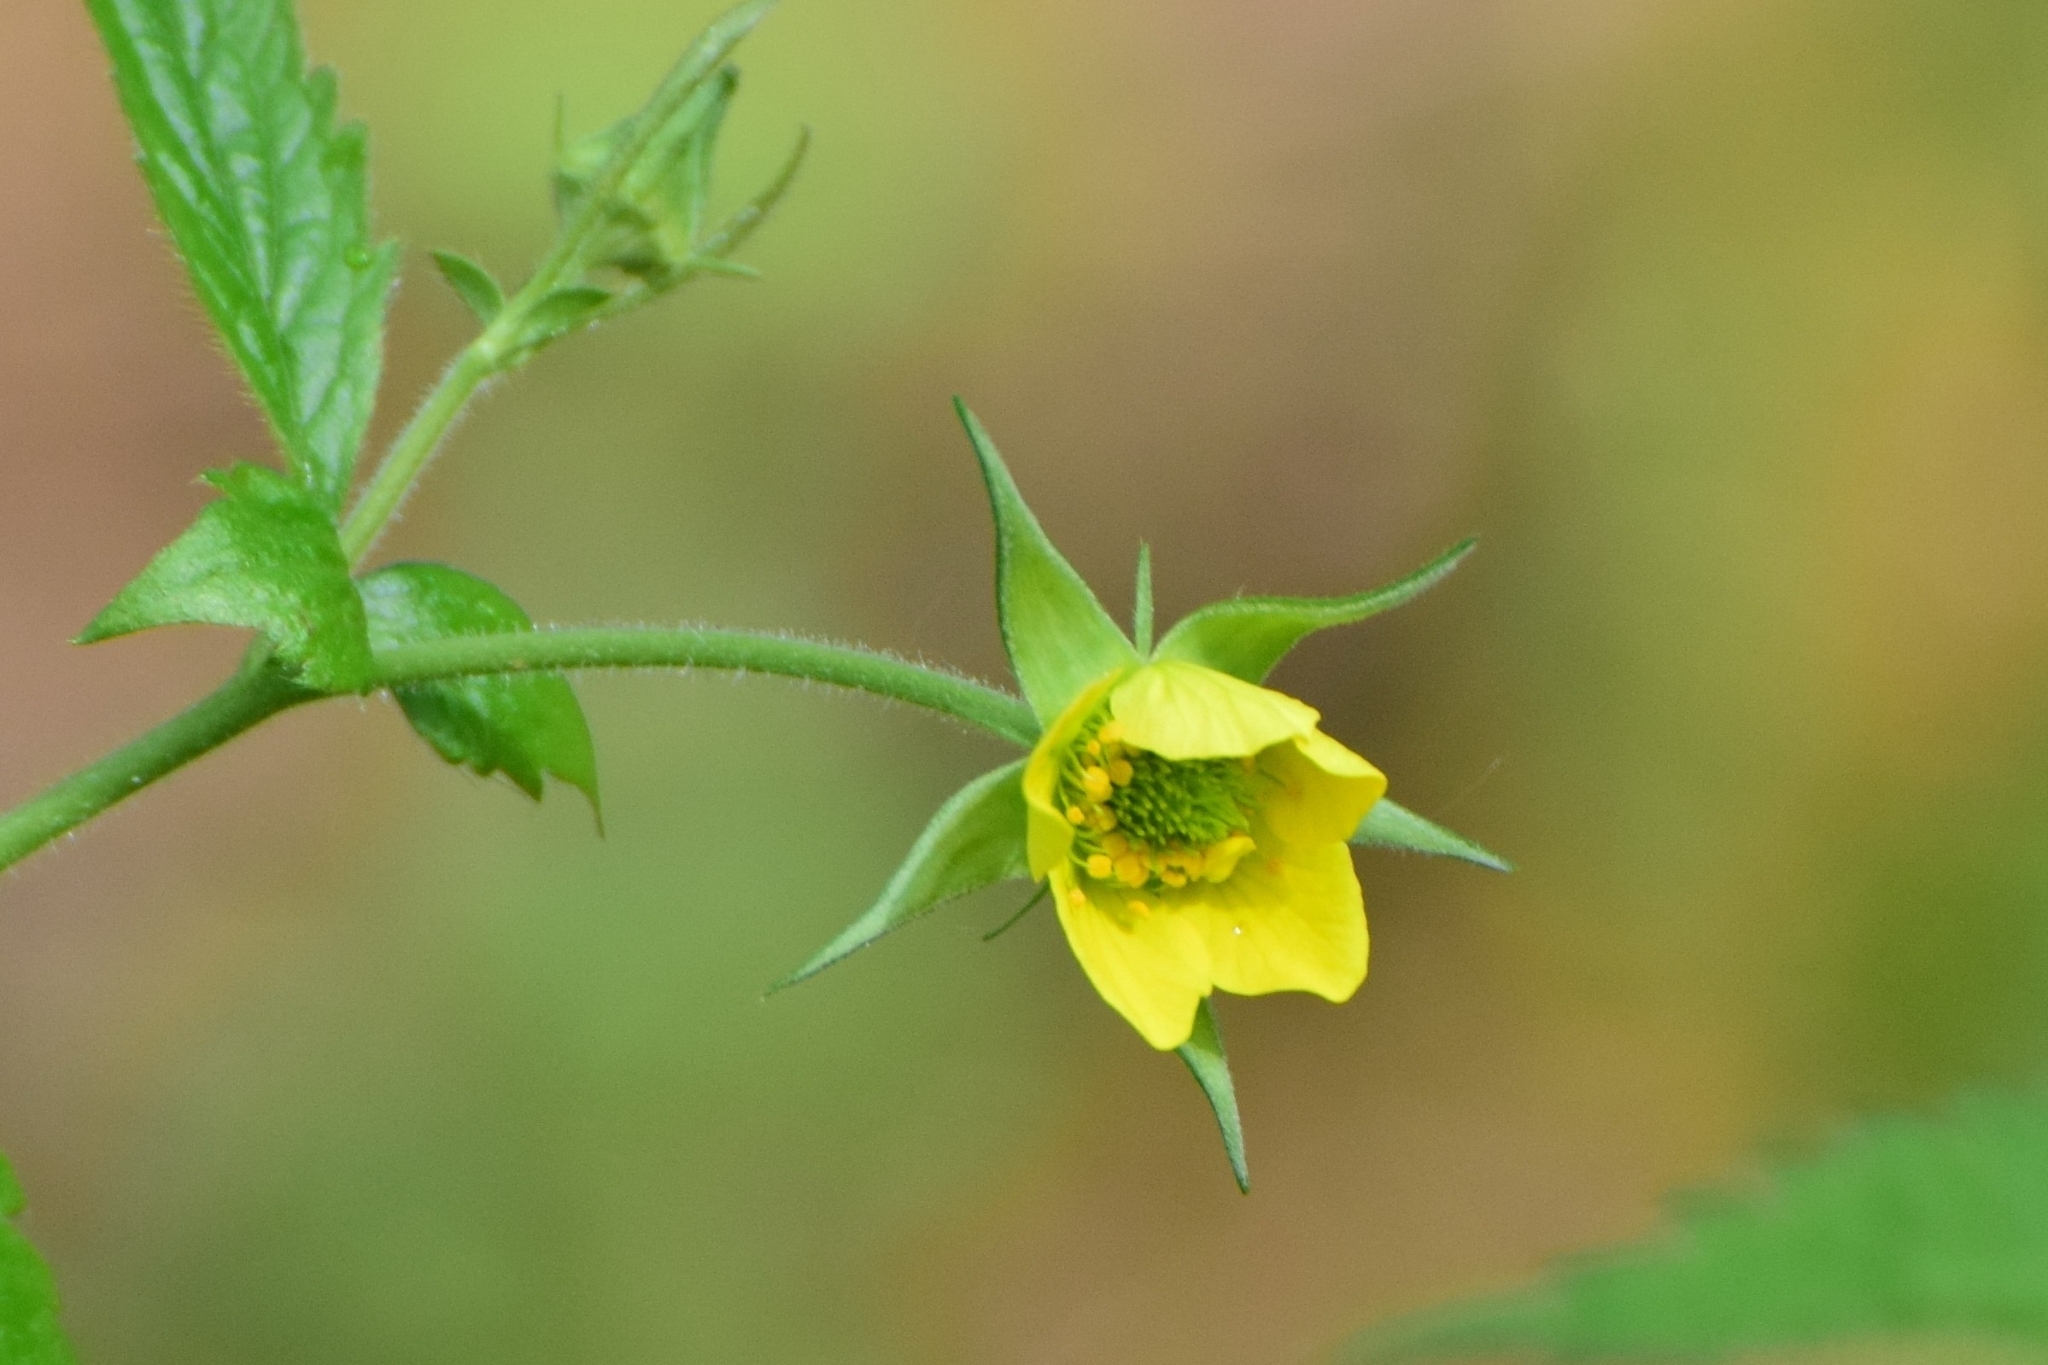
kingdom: Plantae
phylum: Tracheophyta
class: Magnoliopsida
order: Rosales
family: Rosaceae
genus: Geum
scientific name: Geum urbanum
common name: Wood avens
